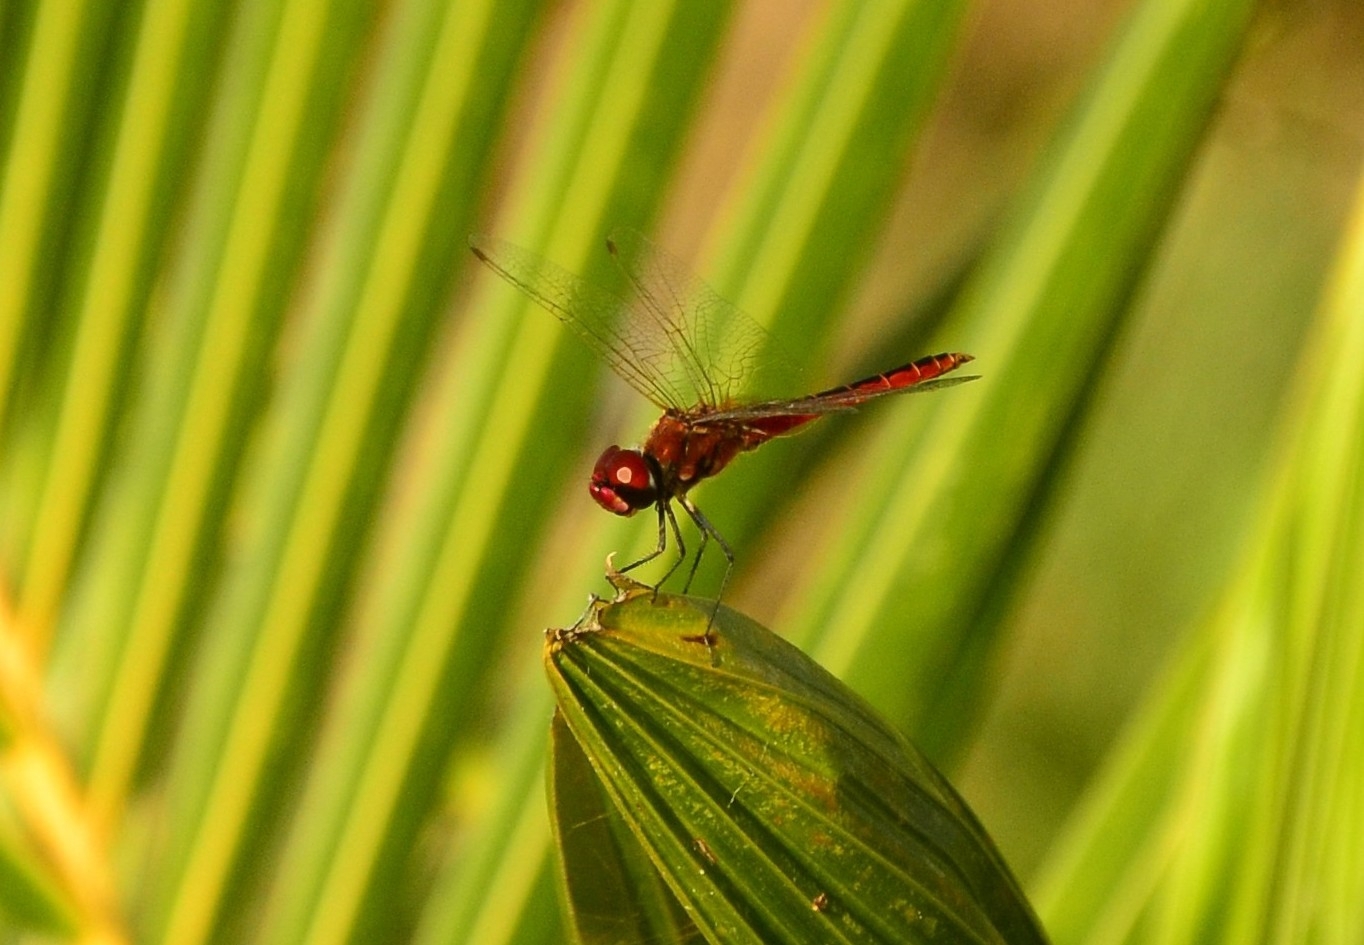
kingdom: Animalia
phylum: Arthropoda
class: Insecta
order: Odonata
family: Libellulidae
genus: Macrodiplax
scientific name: Macrodiplax cora
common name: Coastal glider
